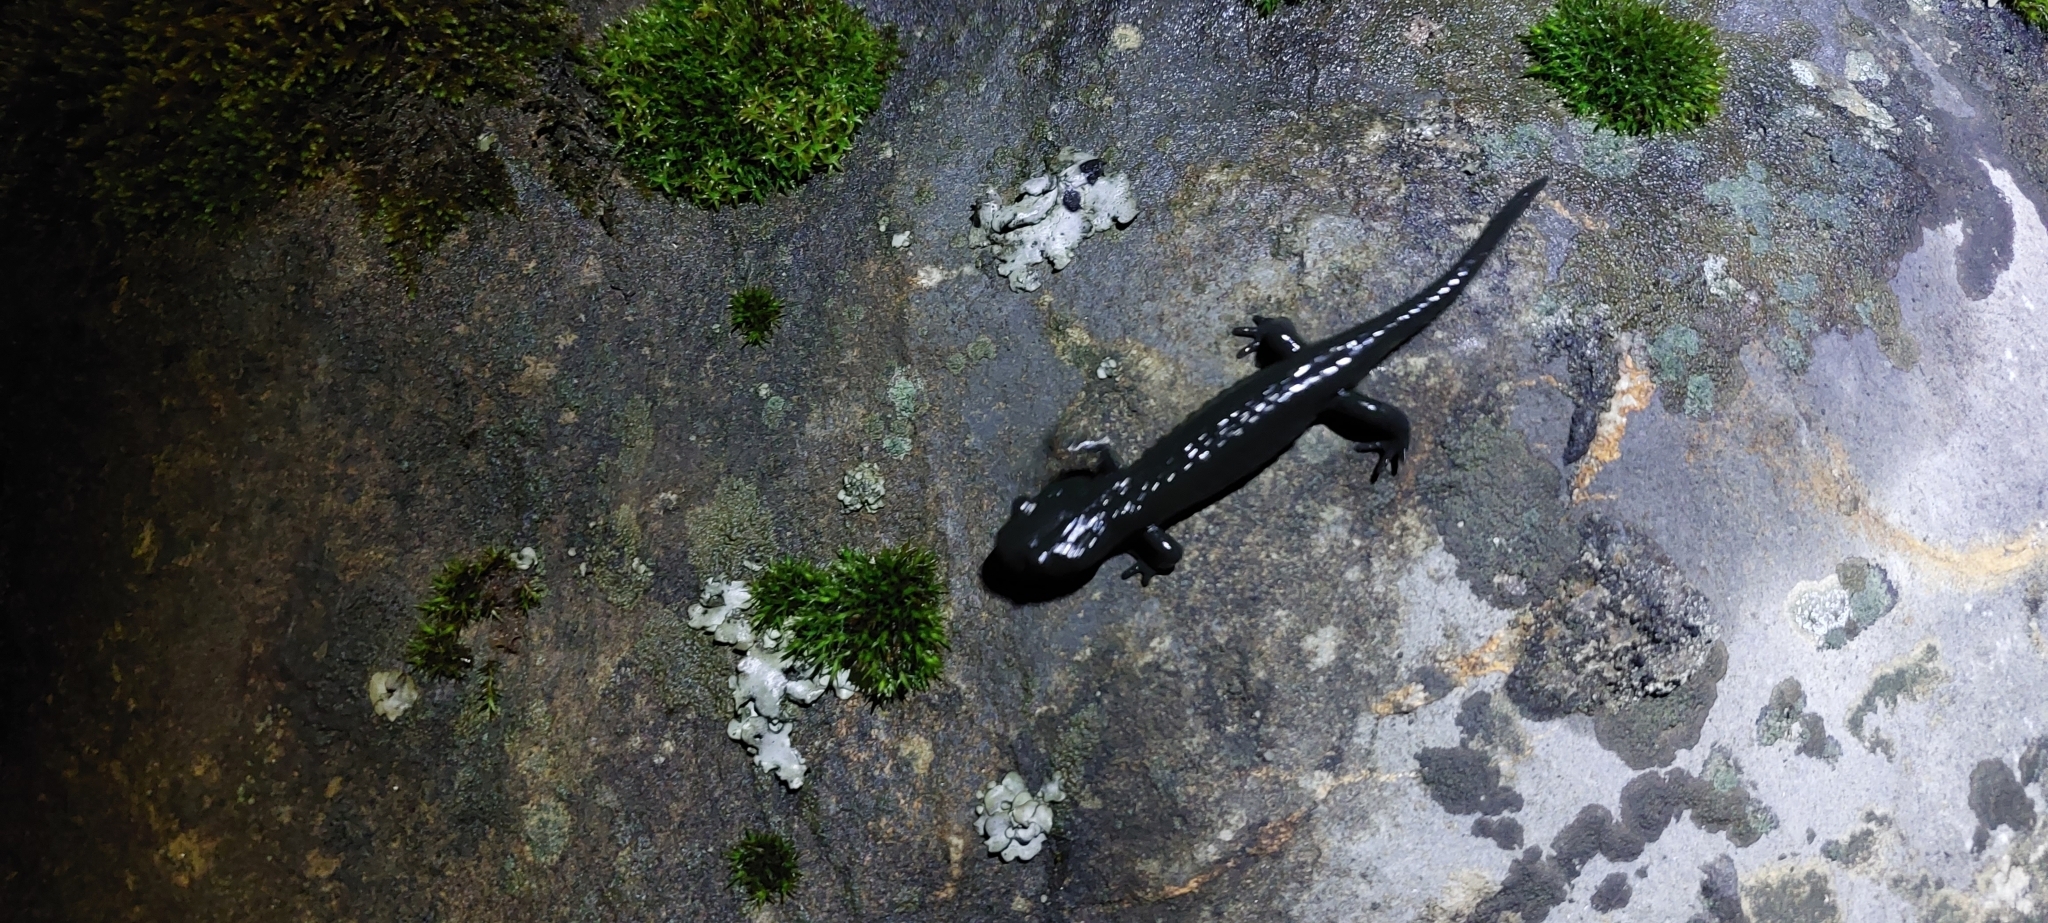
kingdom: Animalia
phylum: Chordata
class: Amphibia
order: Caudata
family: Salamandridae
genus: Salamandra
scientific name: Salamandra atra
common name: Alpine salamander
